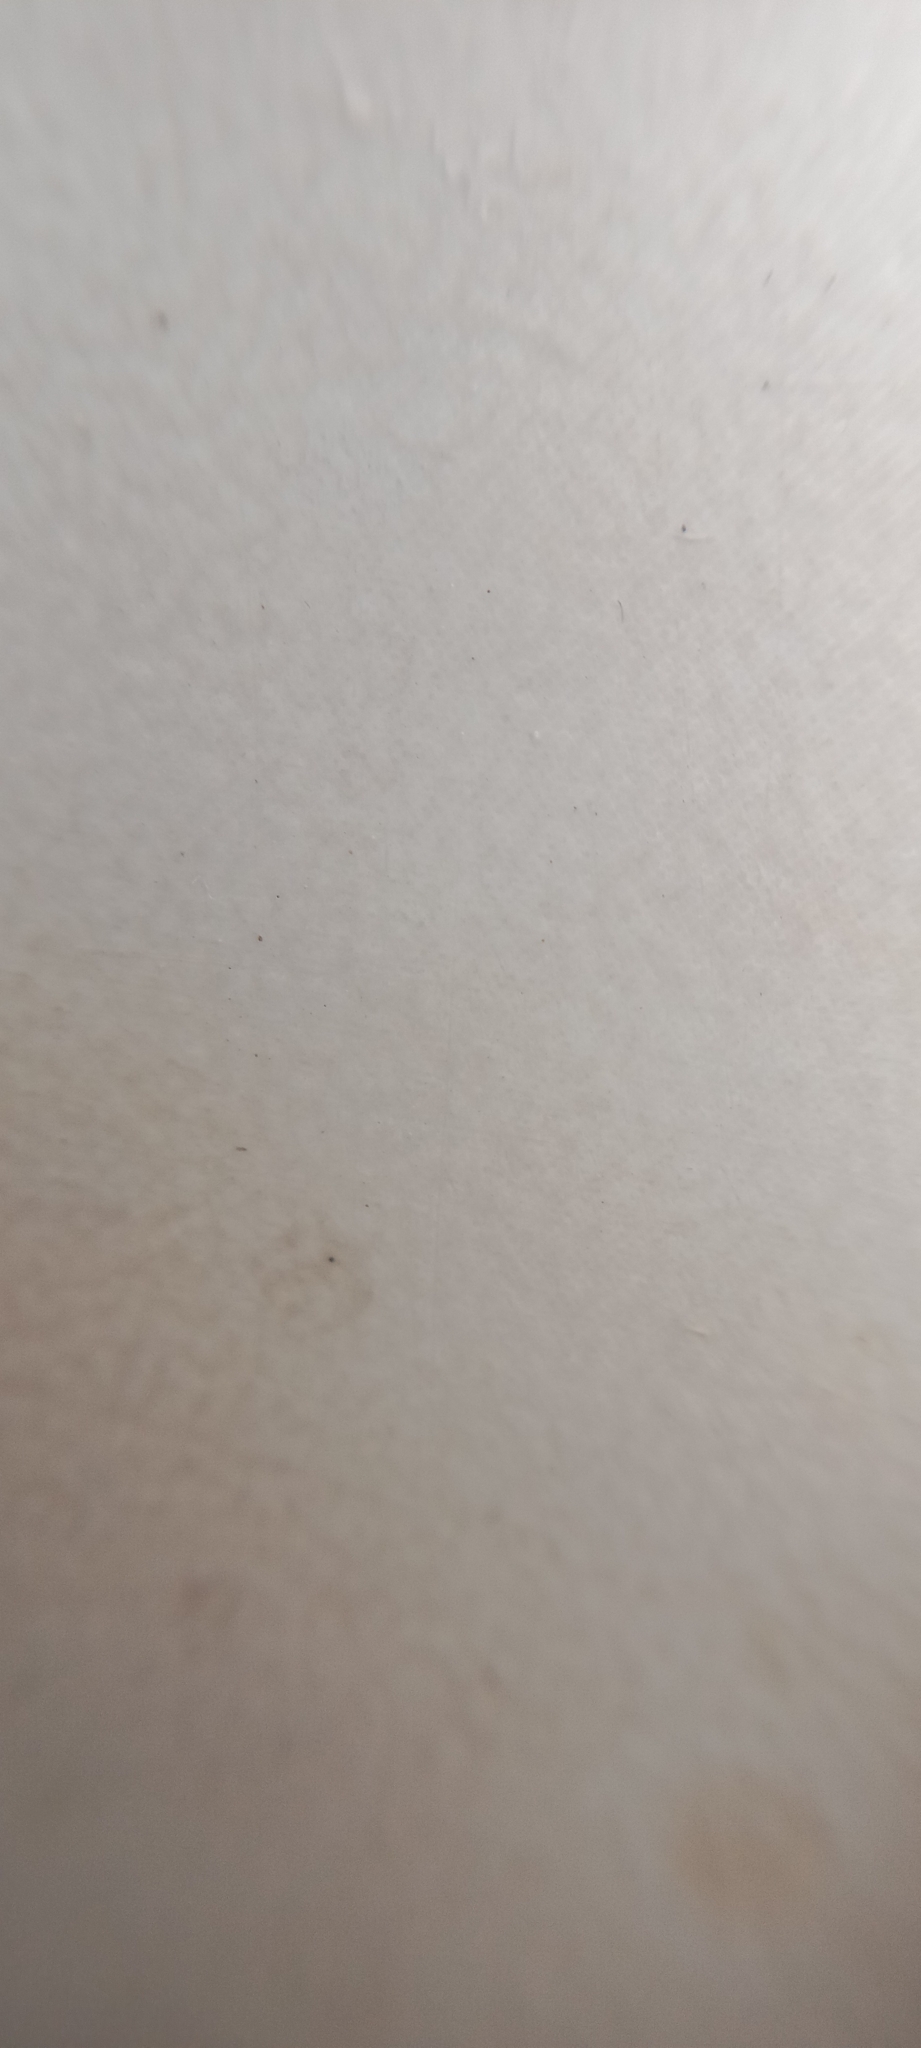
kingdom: Animalia
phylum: Arthropoda
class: Insecta
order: Diptera
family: Calliphoridae
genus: Melanophora
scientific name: Melanophora roralis
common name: Smoky-winged woodlouse-fly
